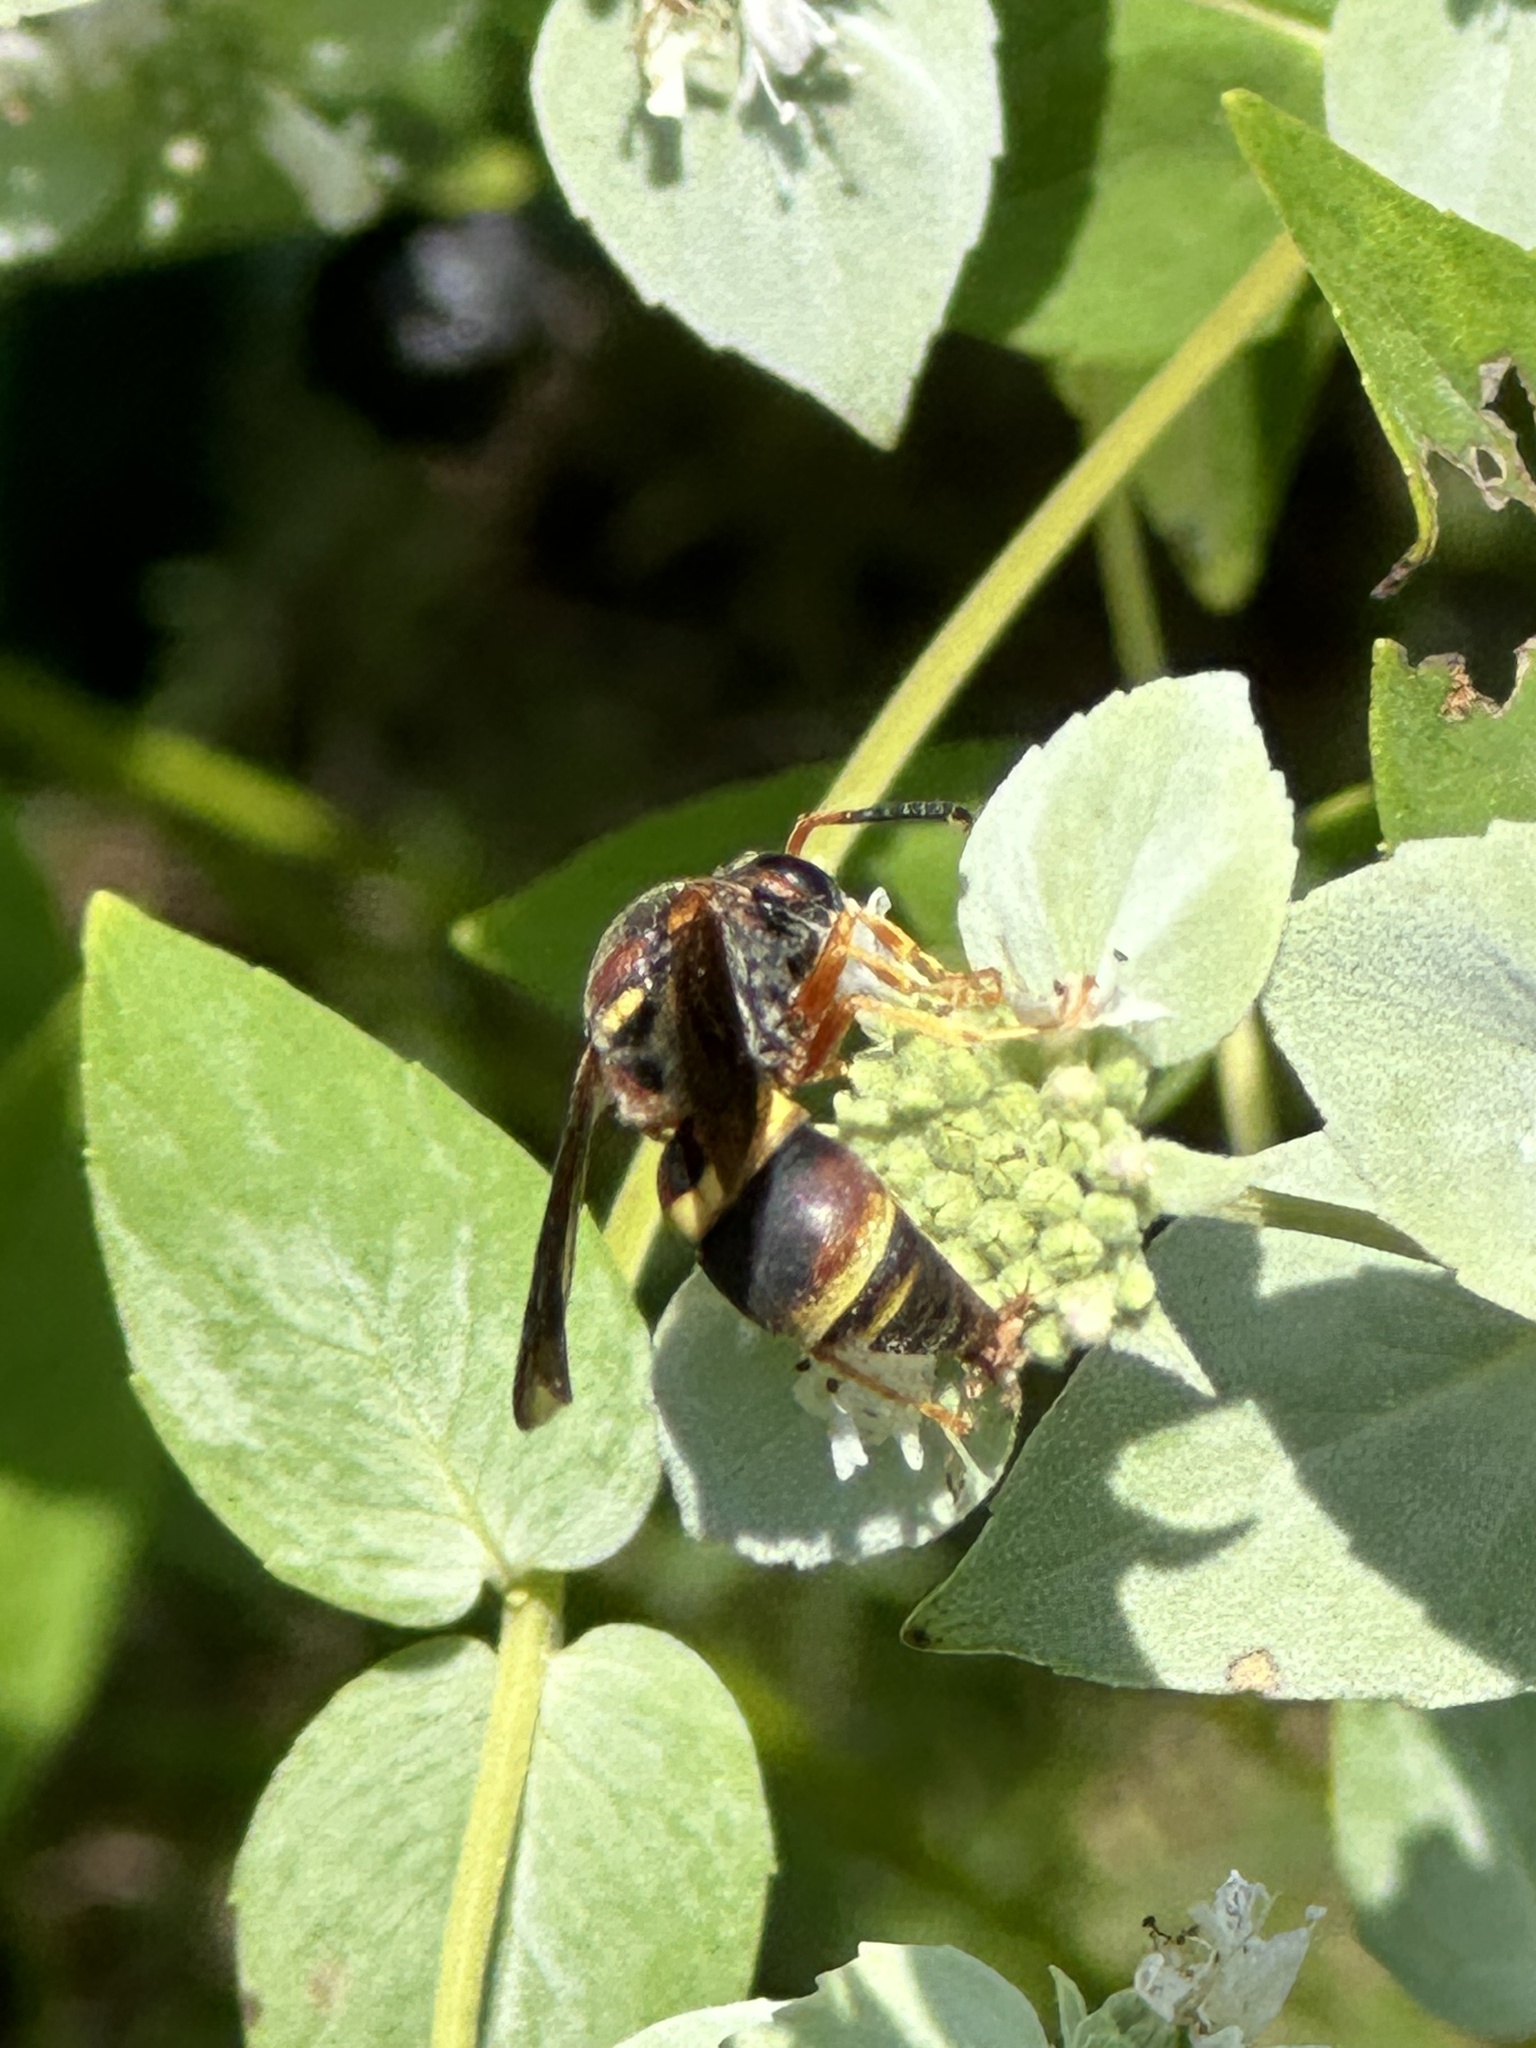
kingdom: Animalia
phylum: Arthropoda
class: Insecta
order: Hymenoptera
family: Eumenidae
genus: Euodynerus
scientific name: Euodynerus crypticus
